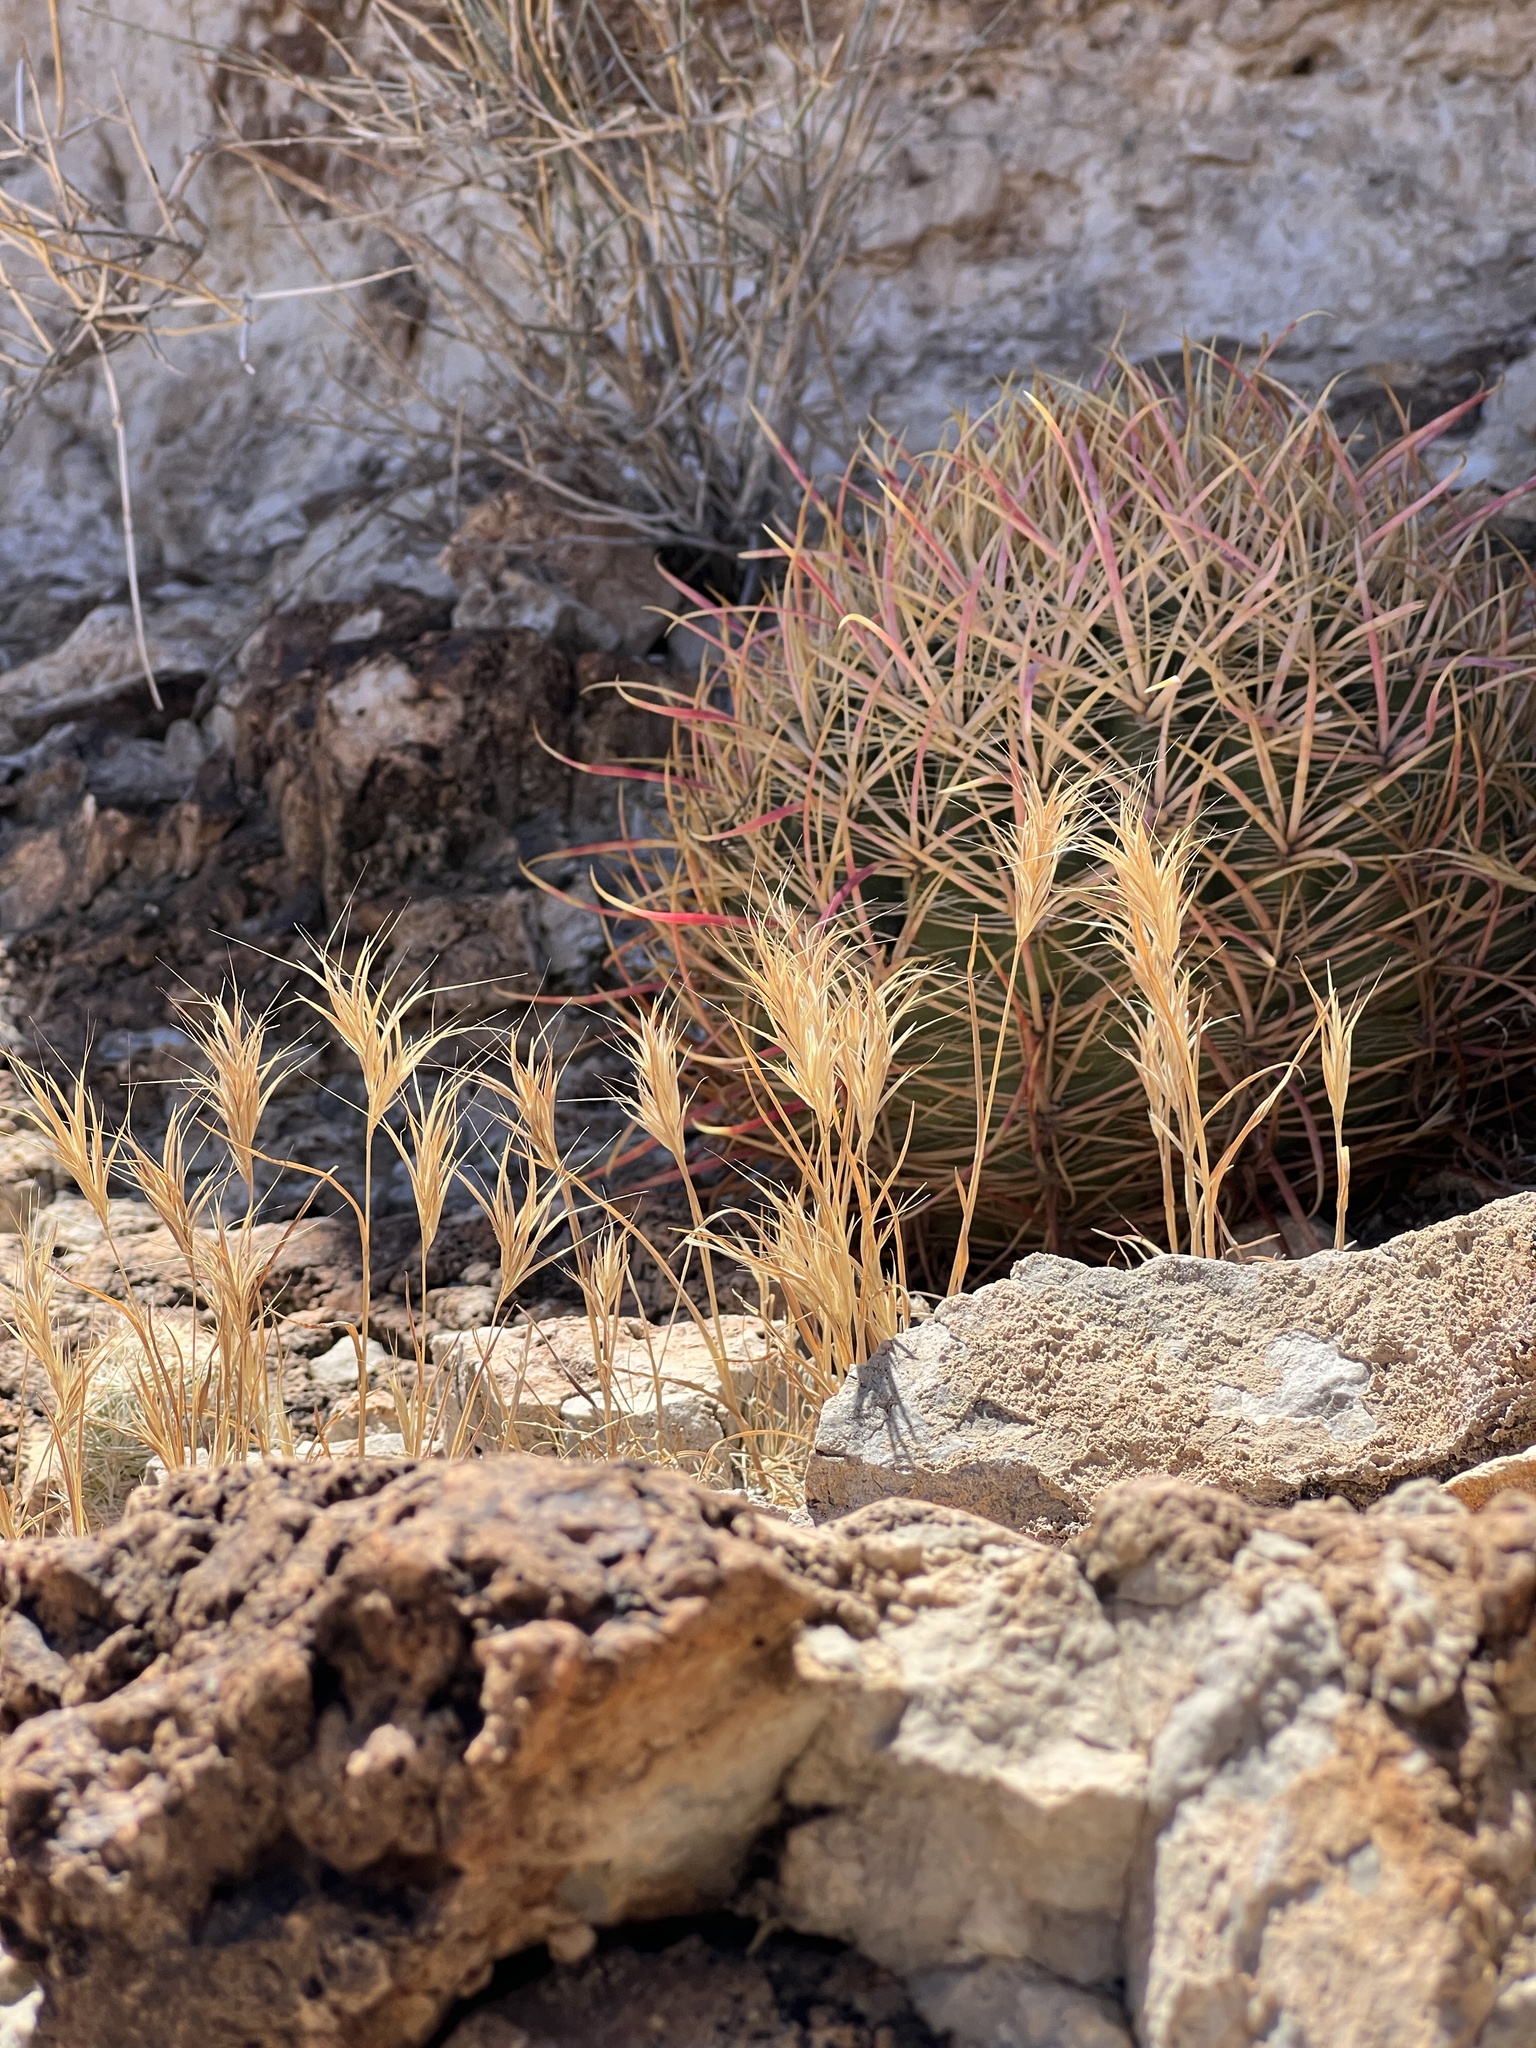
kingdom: Plantae
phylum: Tracheophyta
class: Liliopsida
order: Poales
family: Poaceae
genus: Dasyochloa
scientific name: Dasyochloa pulchella
